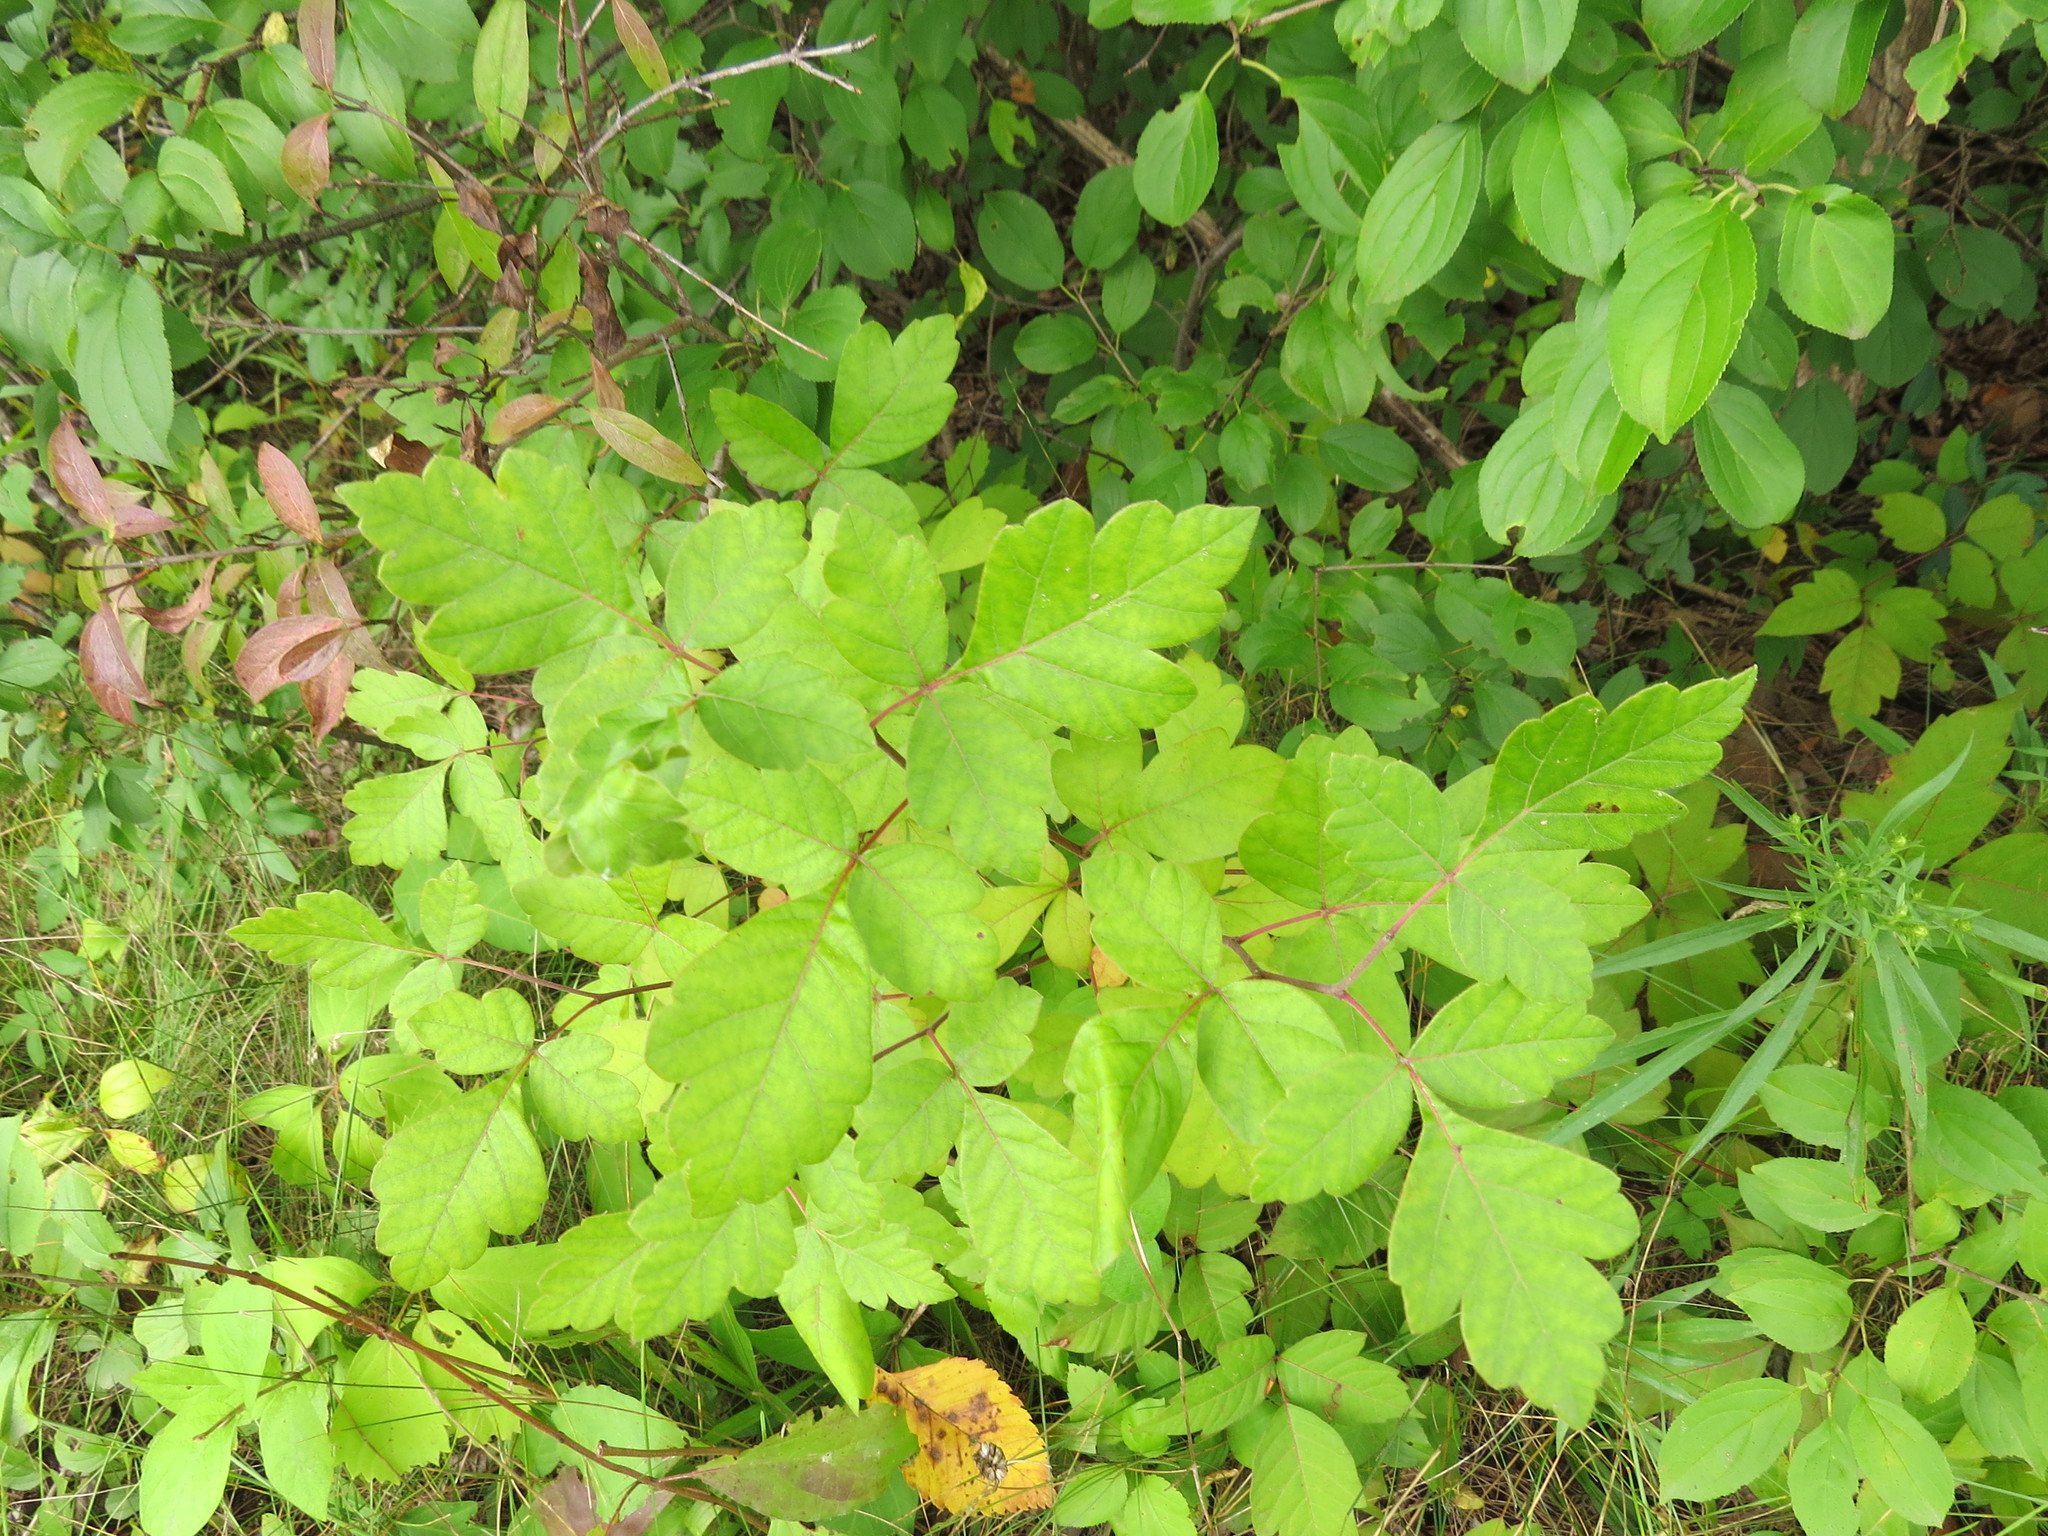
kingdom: Plantae
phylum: Tracheophyta
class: Magnoliopsida
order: Sapindales
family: Anacardiaceae
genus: Rhus
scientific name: Rhus aromatica
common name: Aromatic sumac
